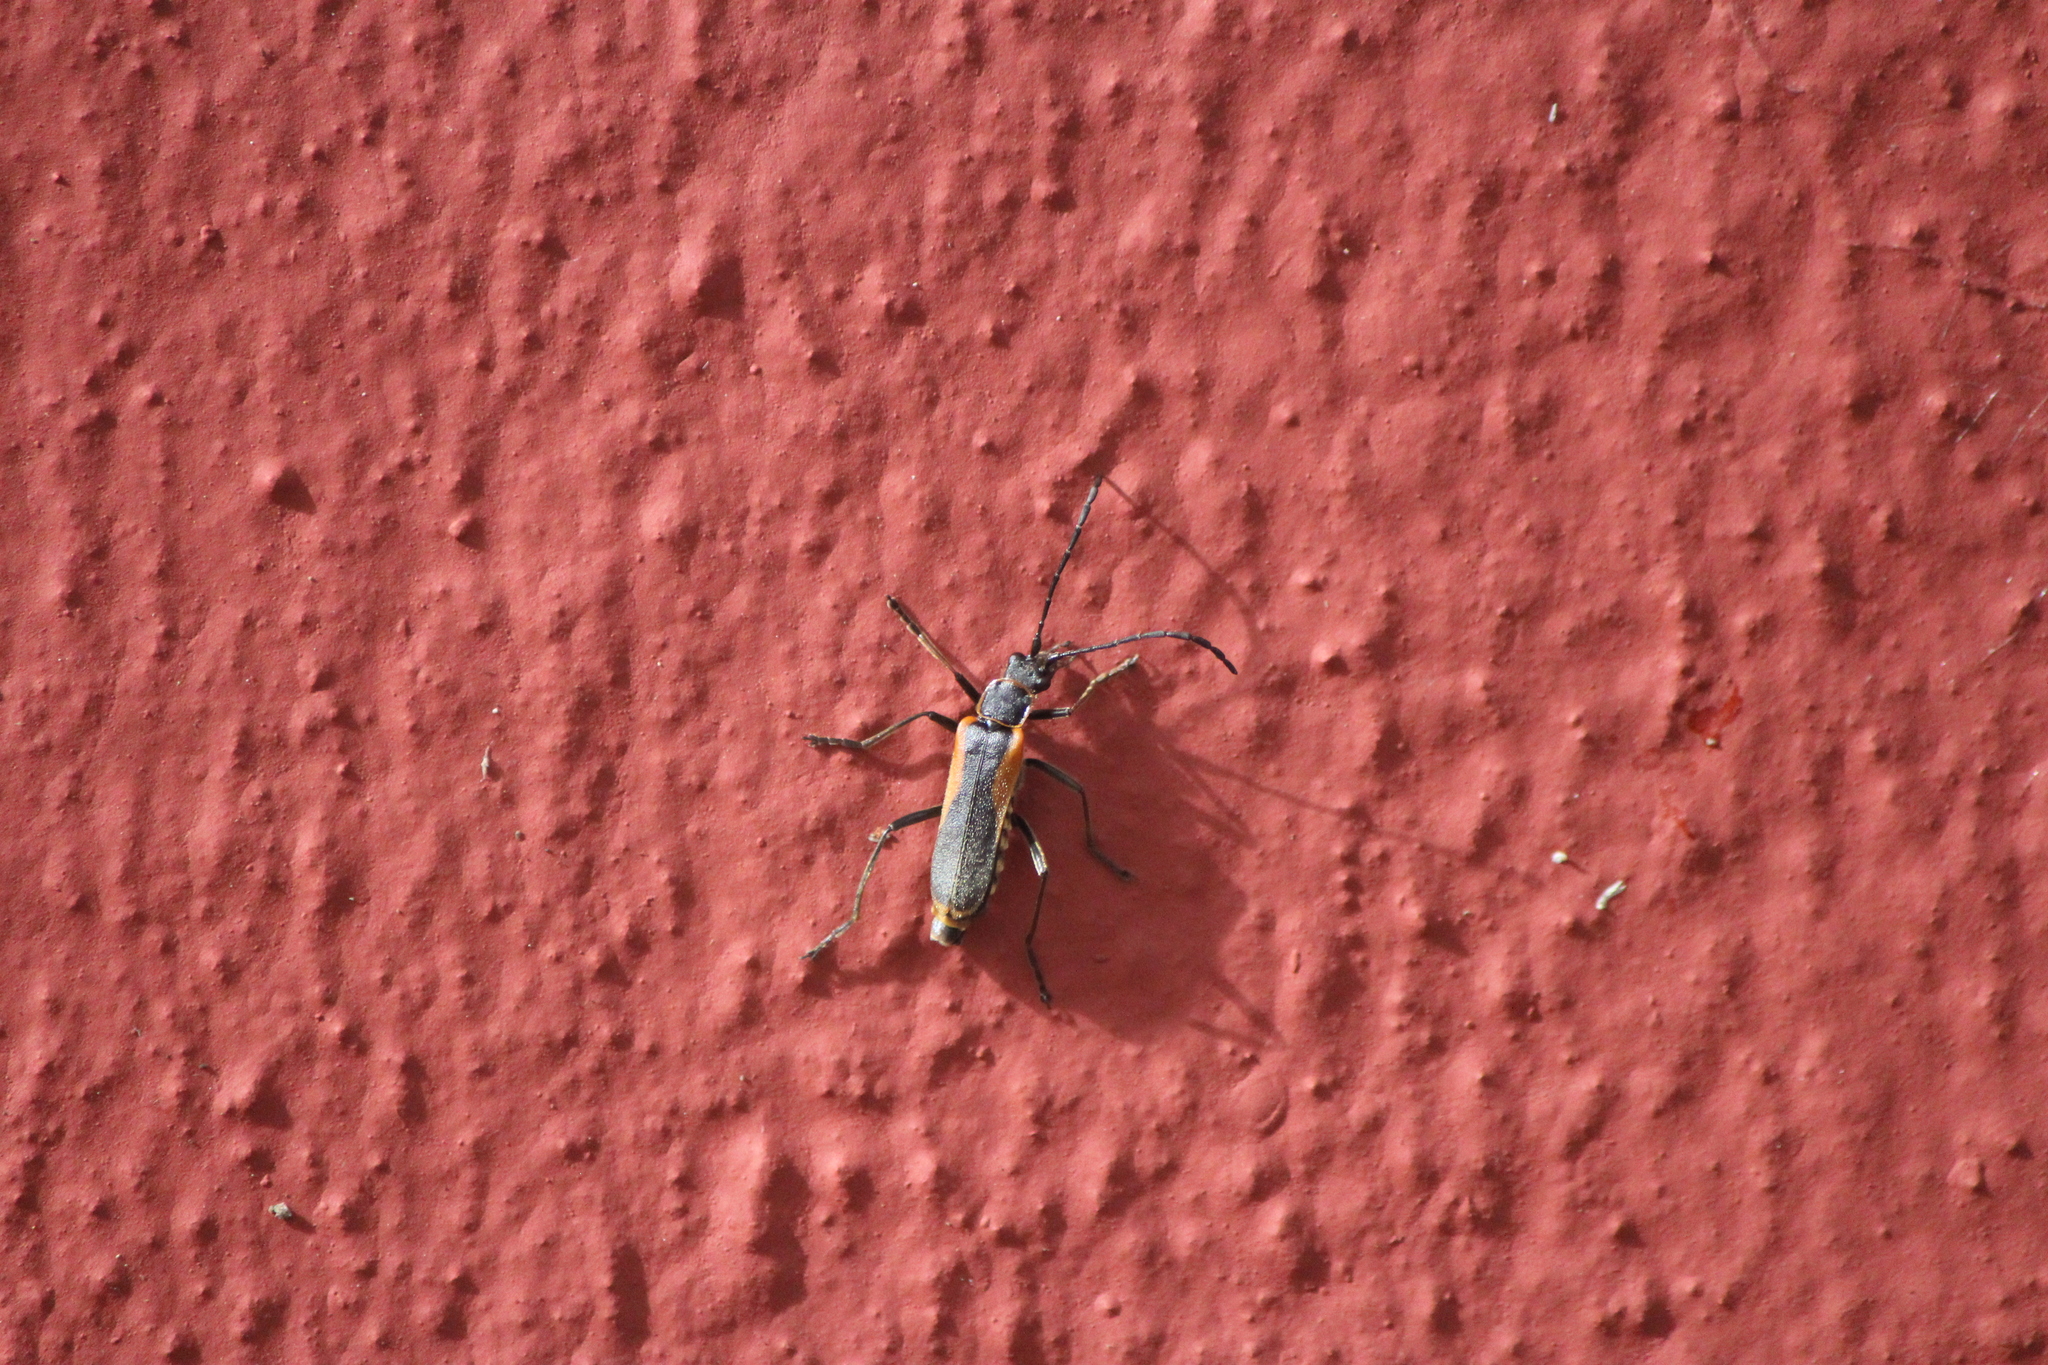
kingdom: Animalia
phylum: Arthropoda
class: Insecta
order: Coleoptera
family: Cantharidae
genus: Chauliognathus
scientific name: Chauliognathus limbicollis
